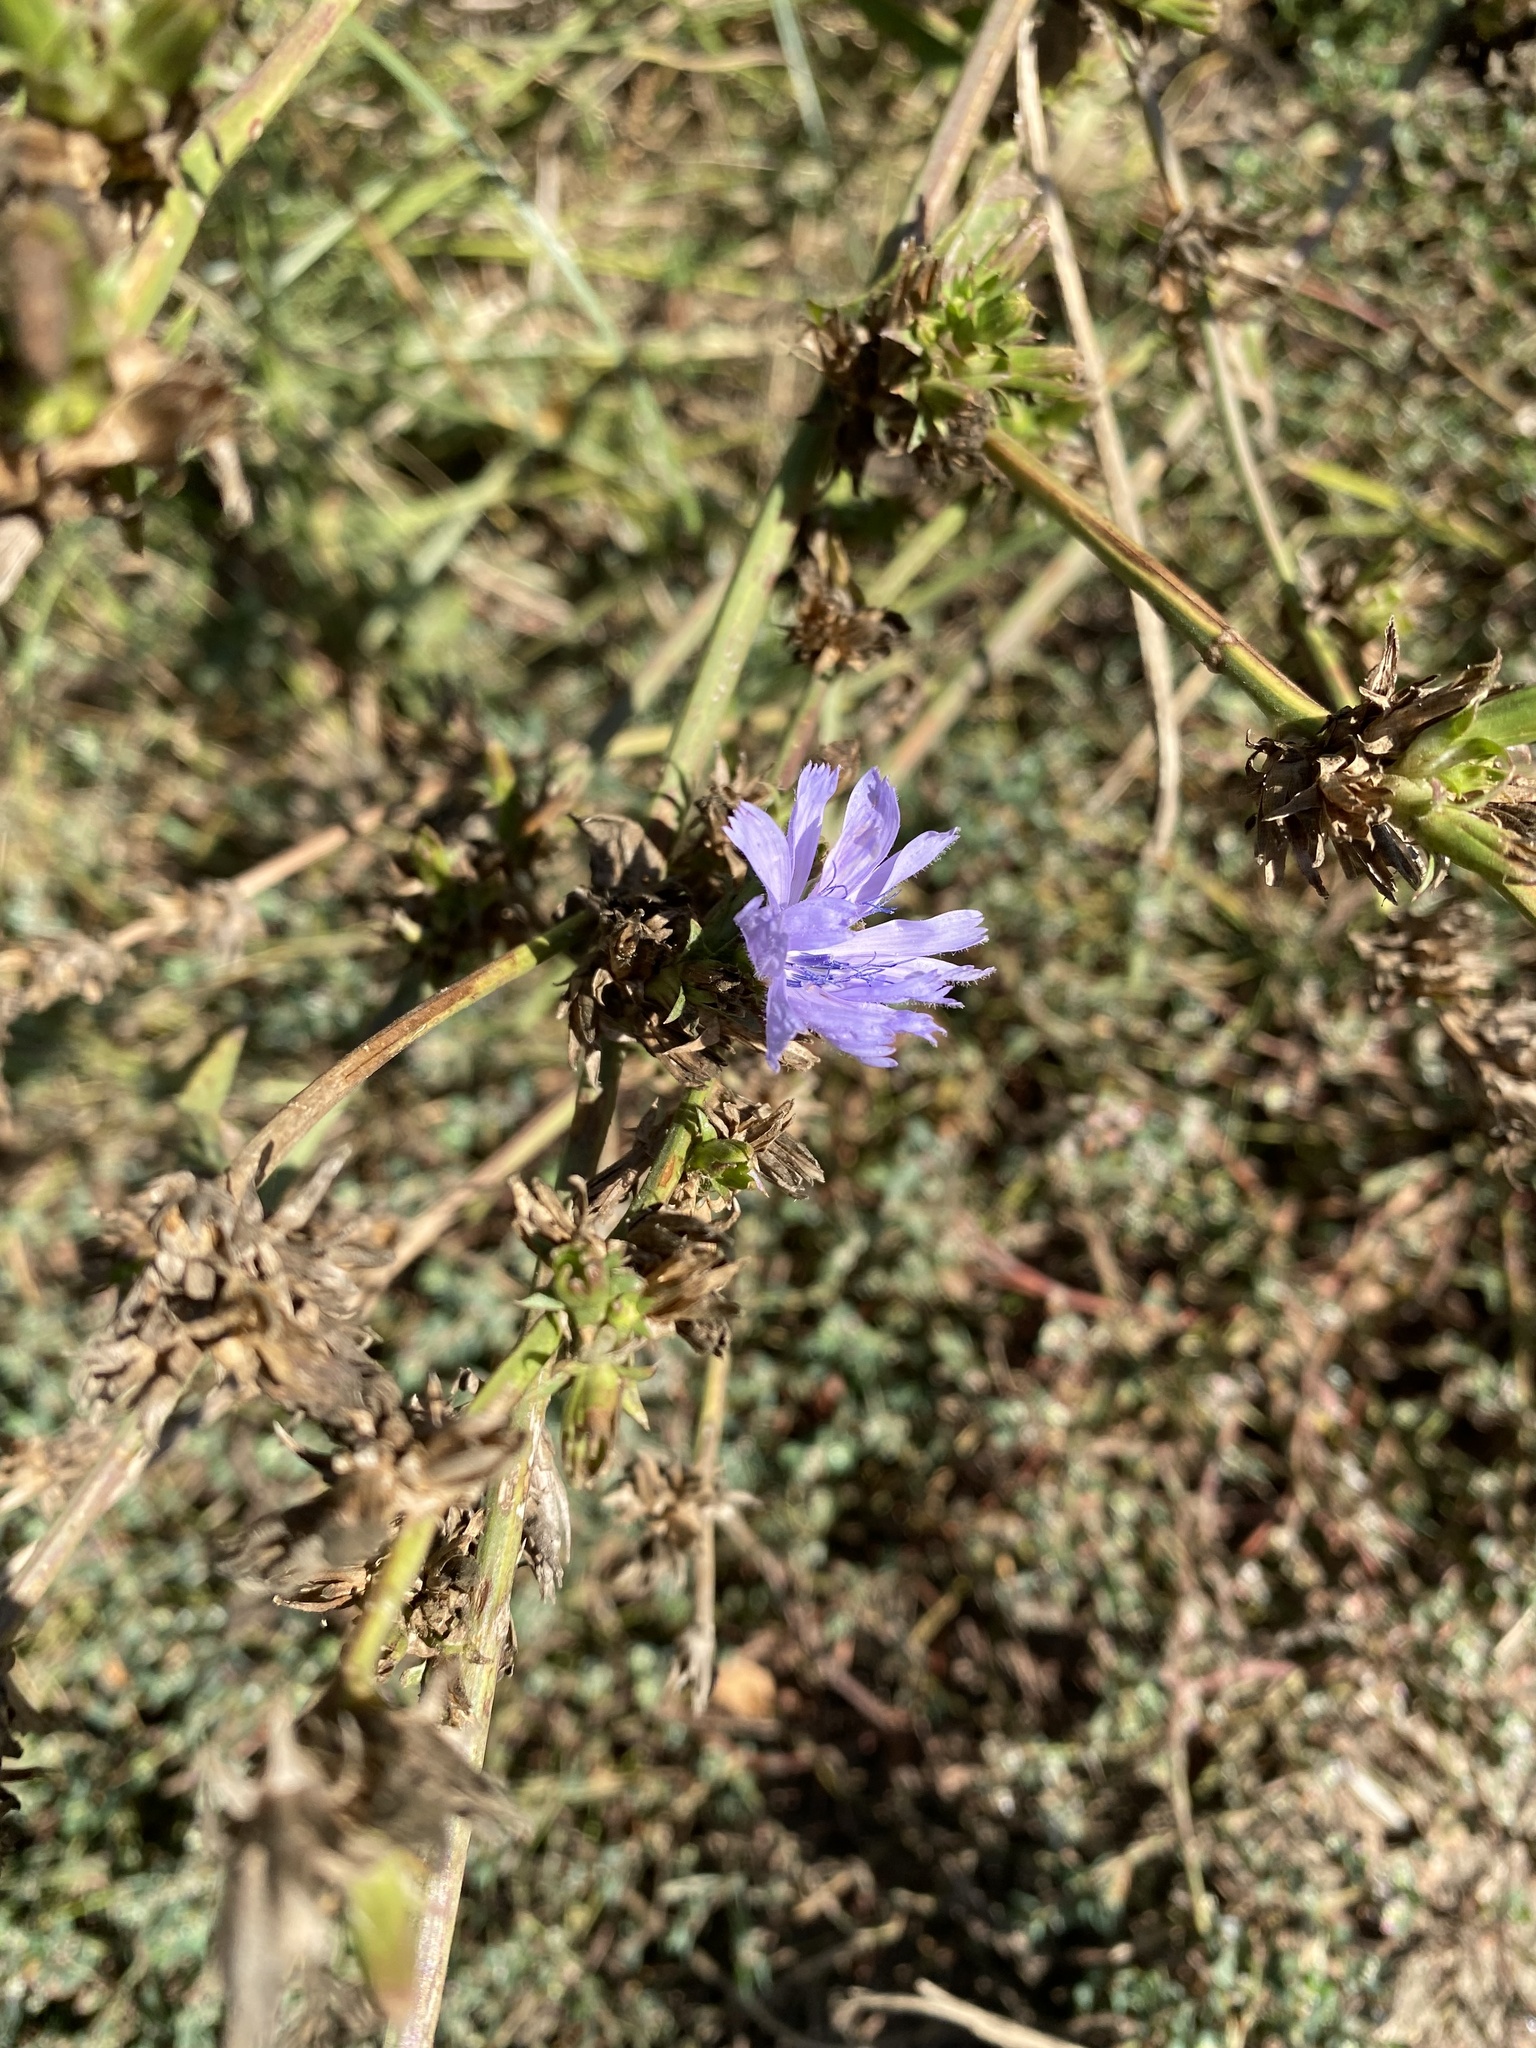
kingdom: Plantae
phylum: Tracheophyta
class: Magnoliopsida
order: Asterales
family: Asteraceae
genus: Cichorium
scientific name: Cichorium intybus
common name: Chicory
